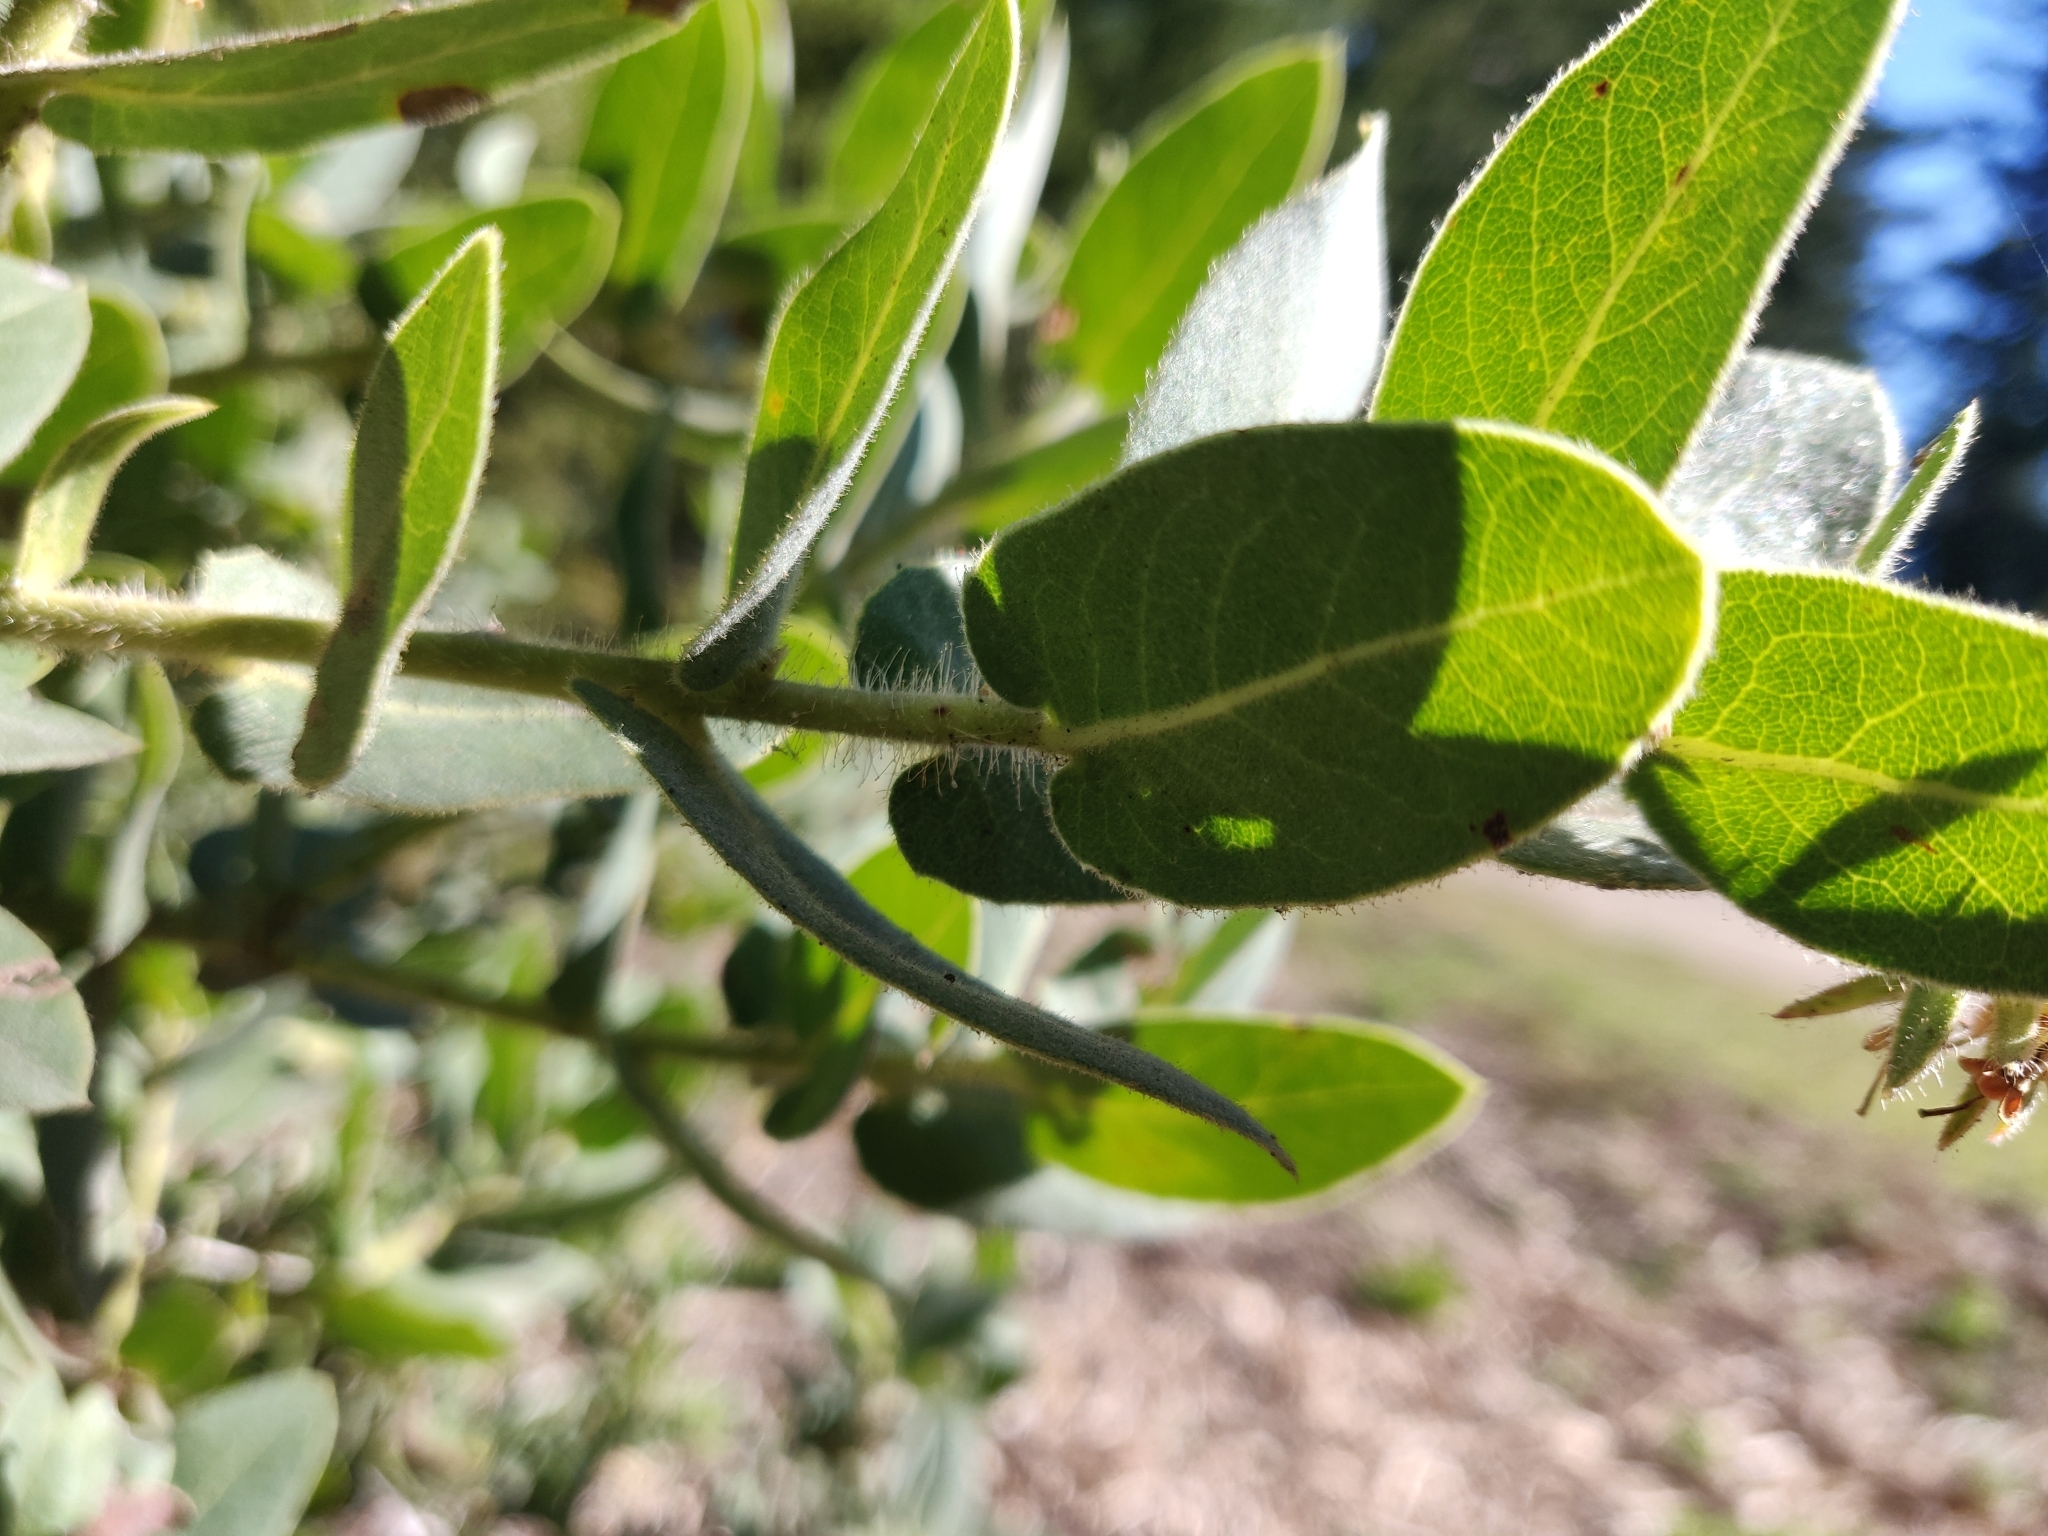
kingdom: Plantae
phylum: Tracheophyta
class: Magnoliopsida
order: Ericales
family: Ericaceae
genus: Arctostaphylos
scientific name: Arctostaphylos regismontana
